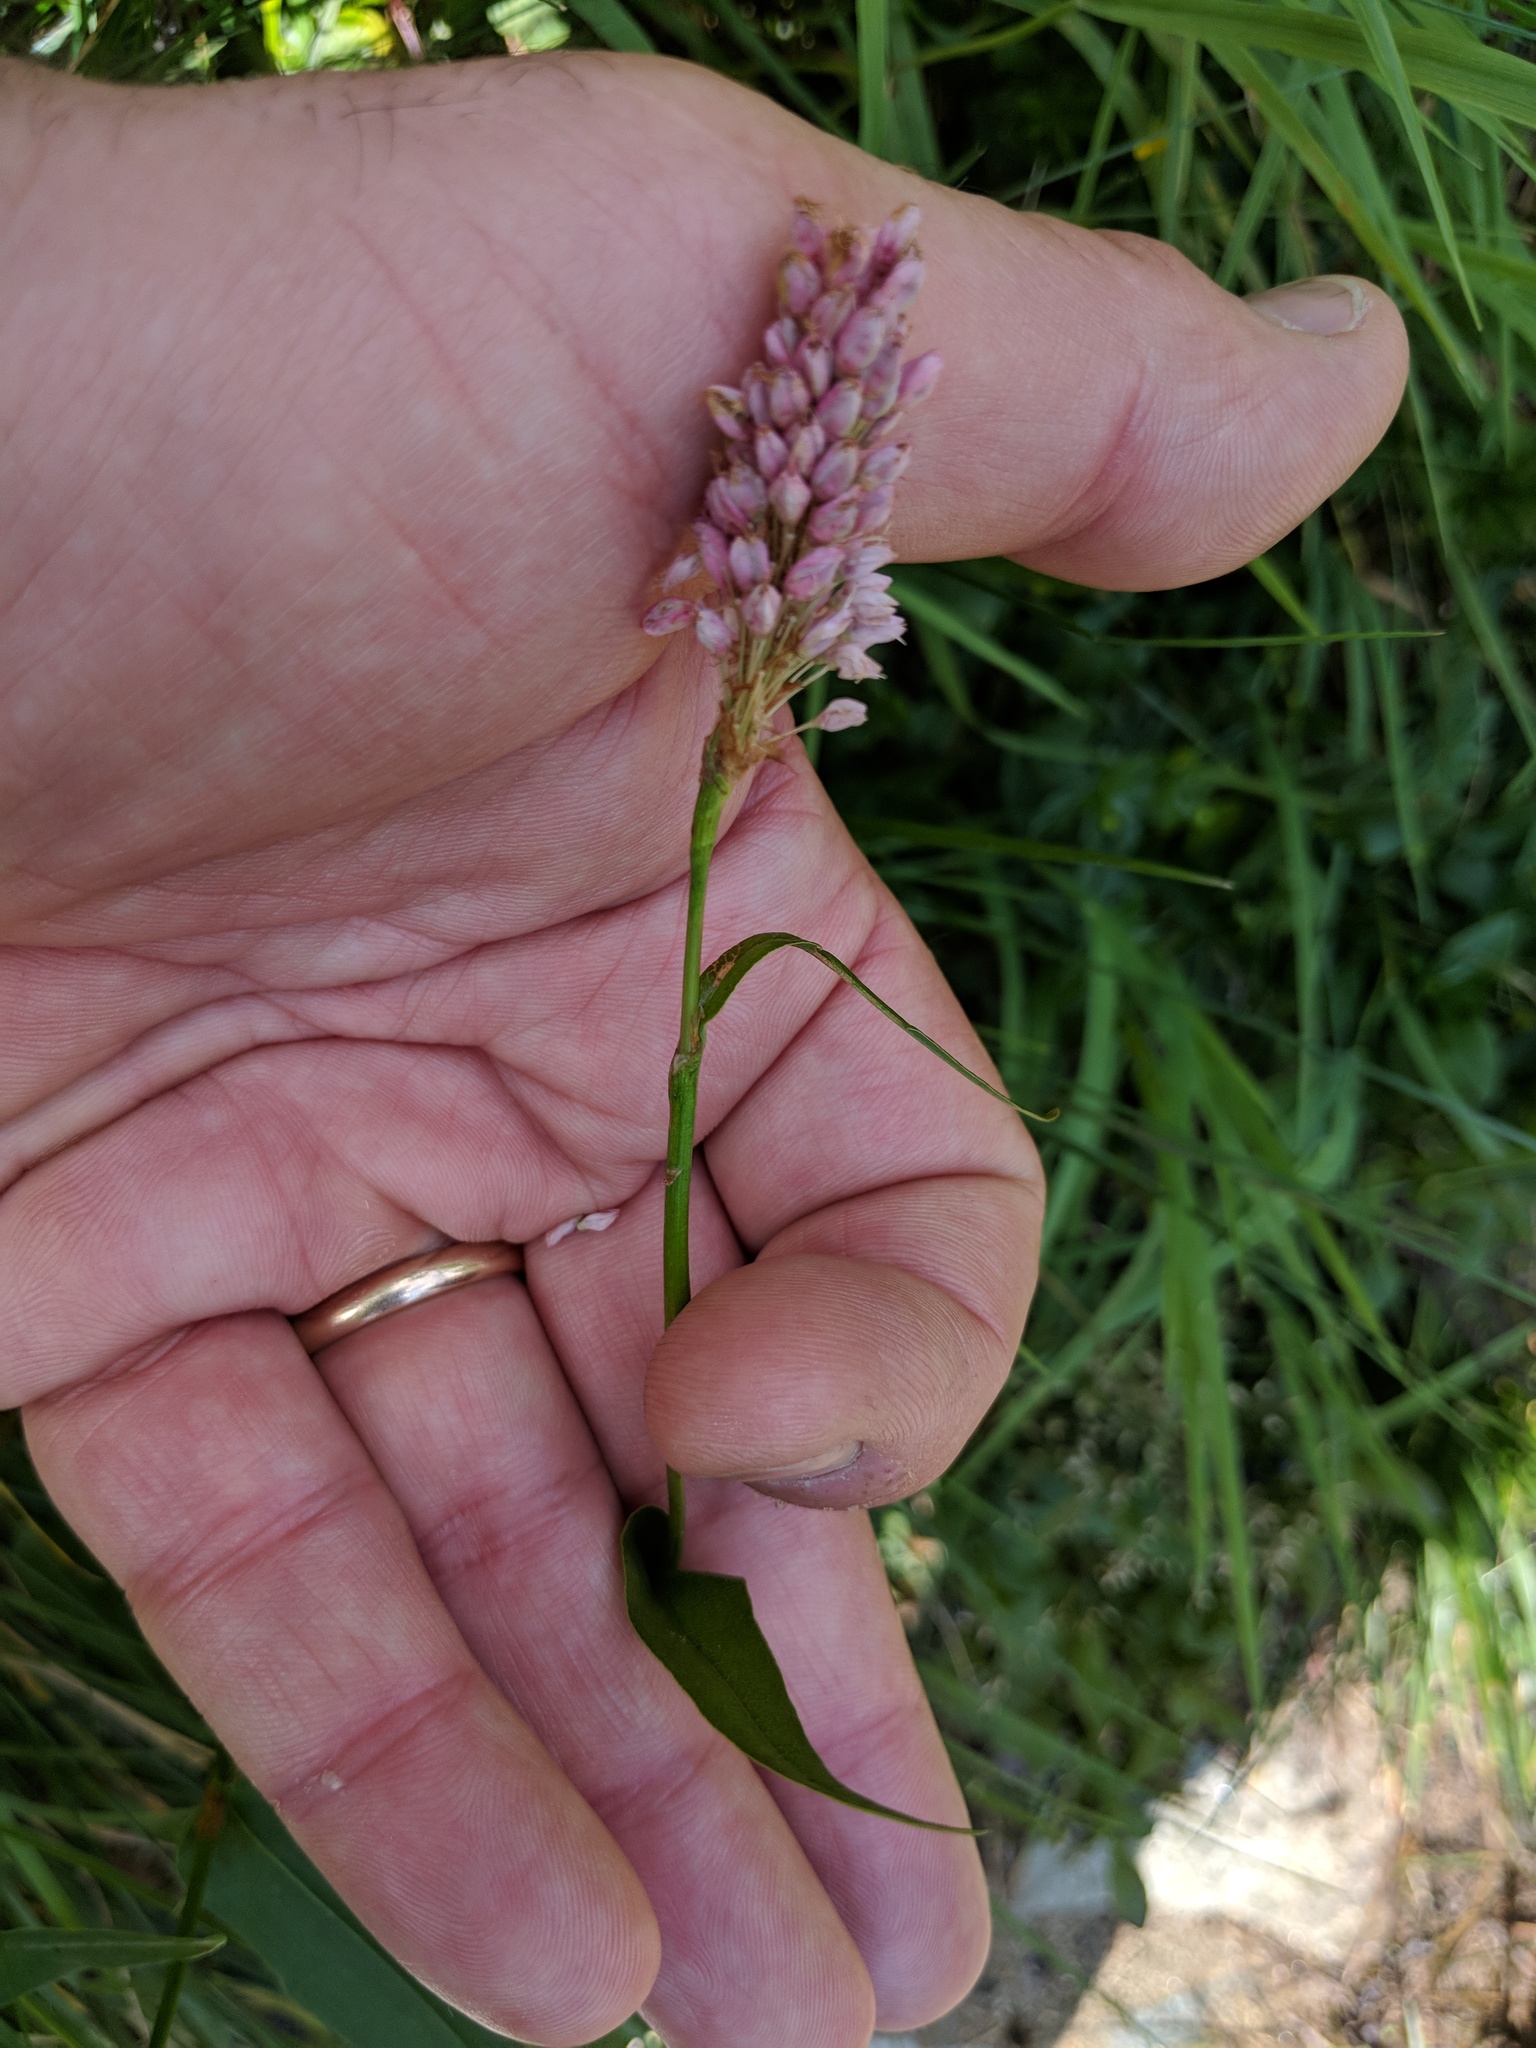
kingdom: Plantae
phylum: Tracheophyta
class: Magnoliopsida
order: Caryophyllales
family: Polygonaceae
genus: Bistorta
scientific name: Bistorta officinalis
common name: Common bistort
